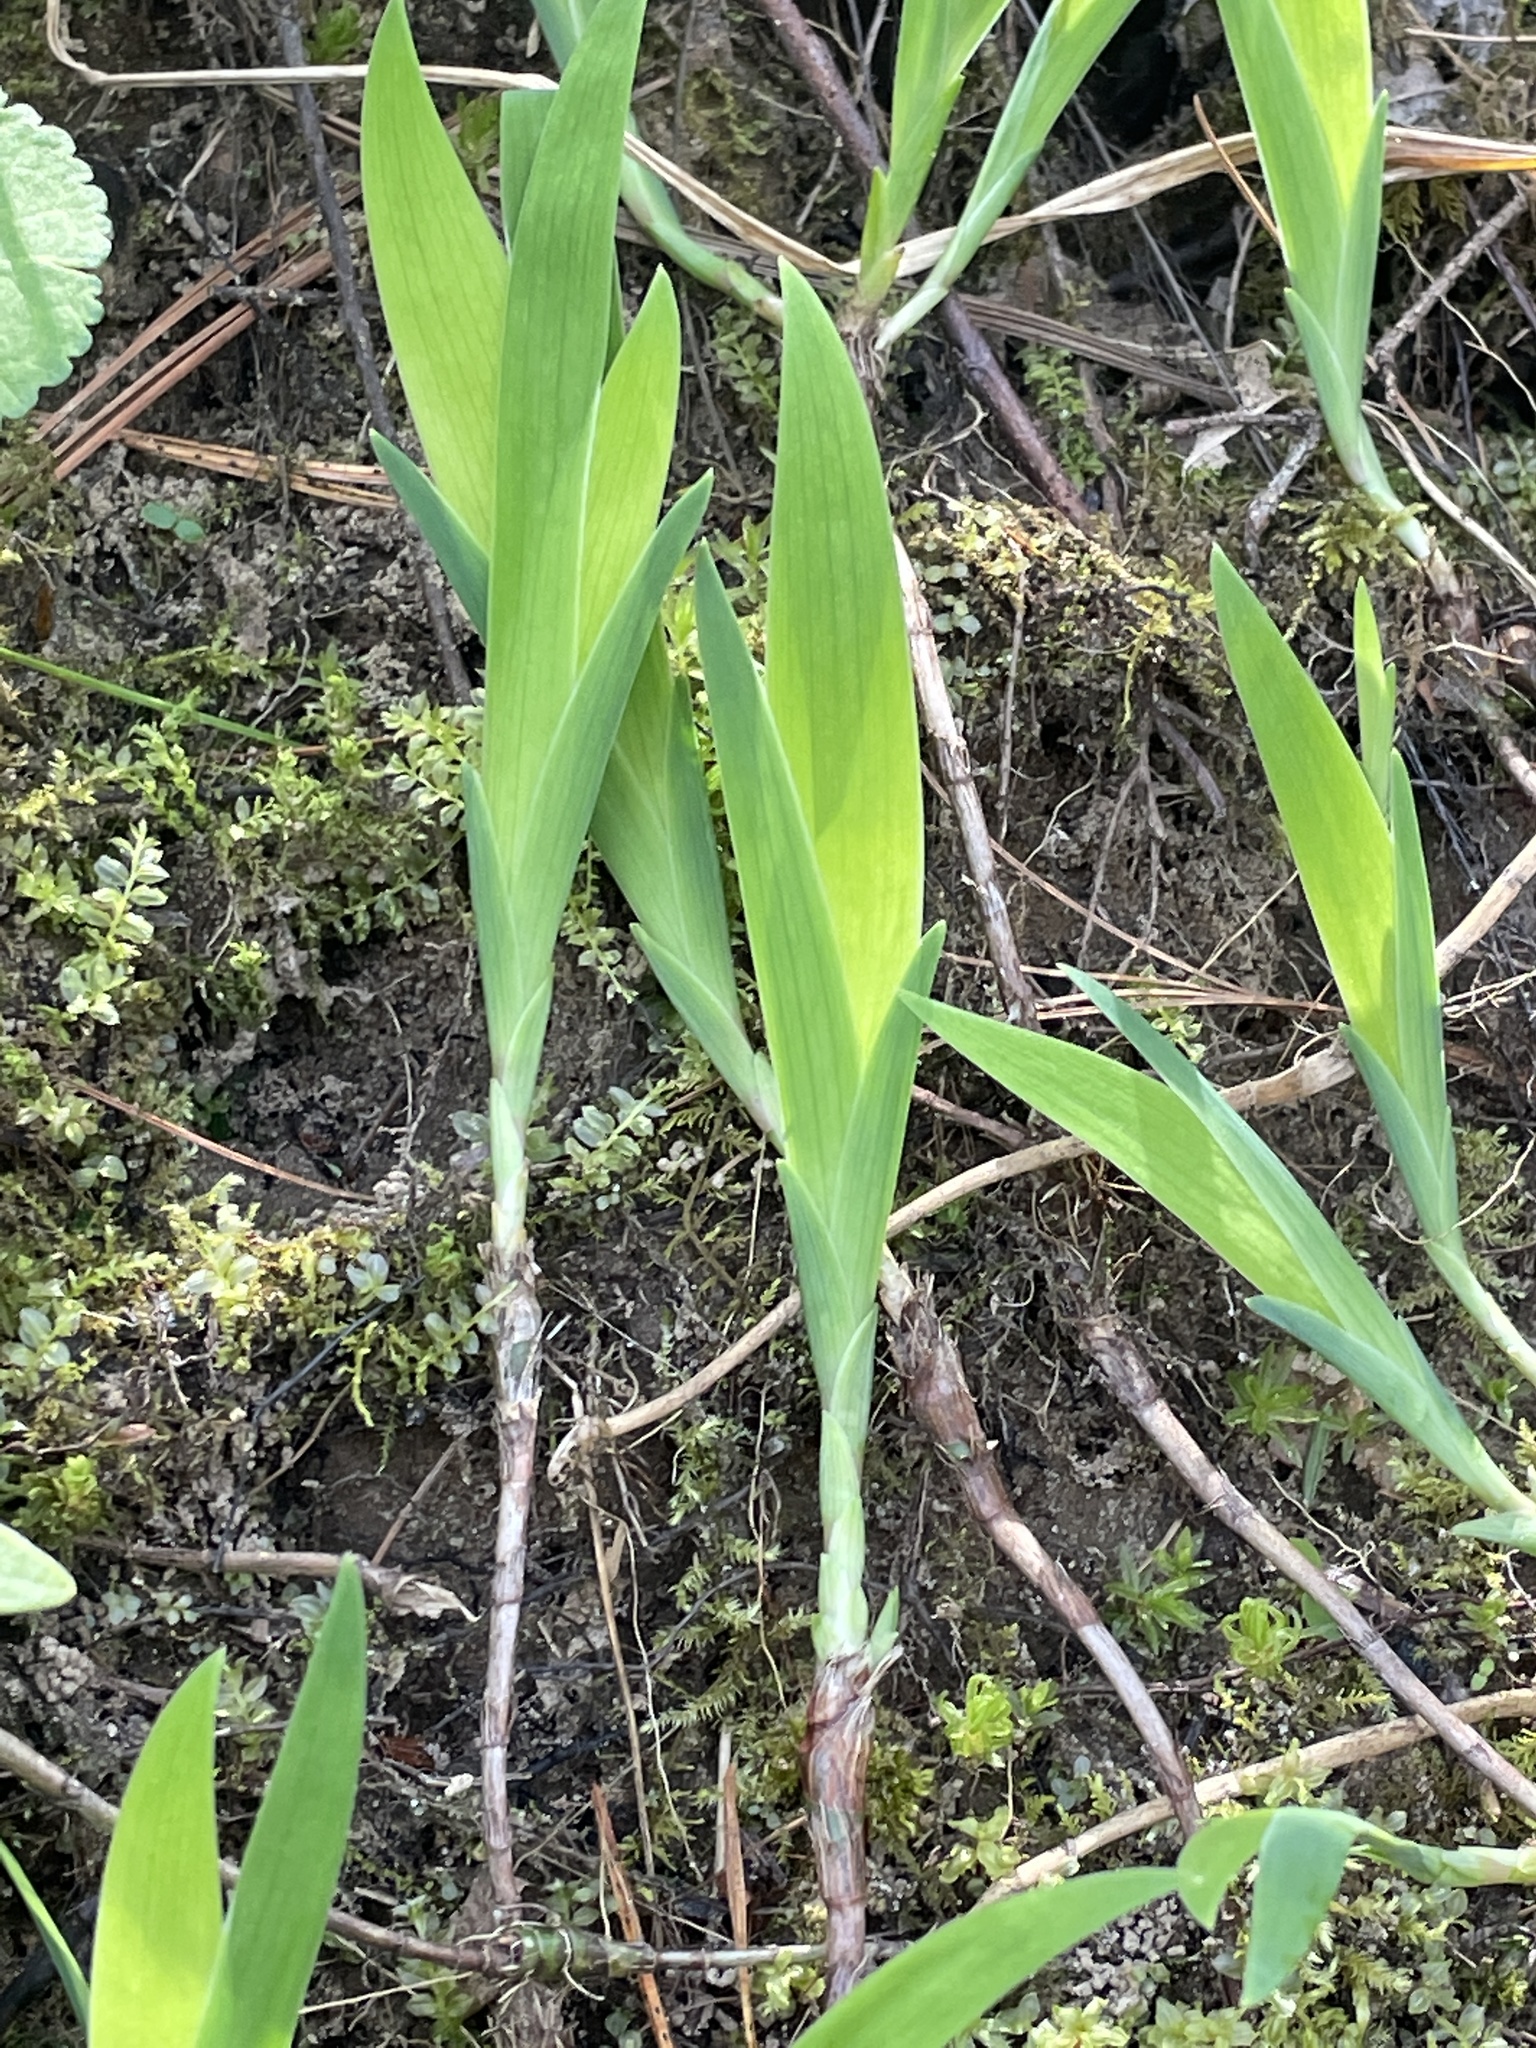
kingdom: Plantae
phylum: Tracheophyta
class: Liliopsida
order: Asparagales
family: Iridaceae
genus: Iris
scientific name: Iris cristata
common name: Crested iris
